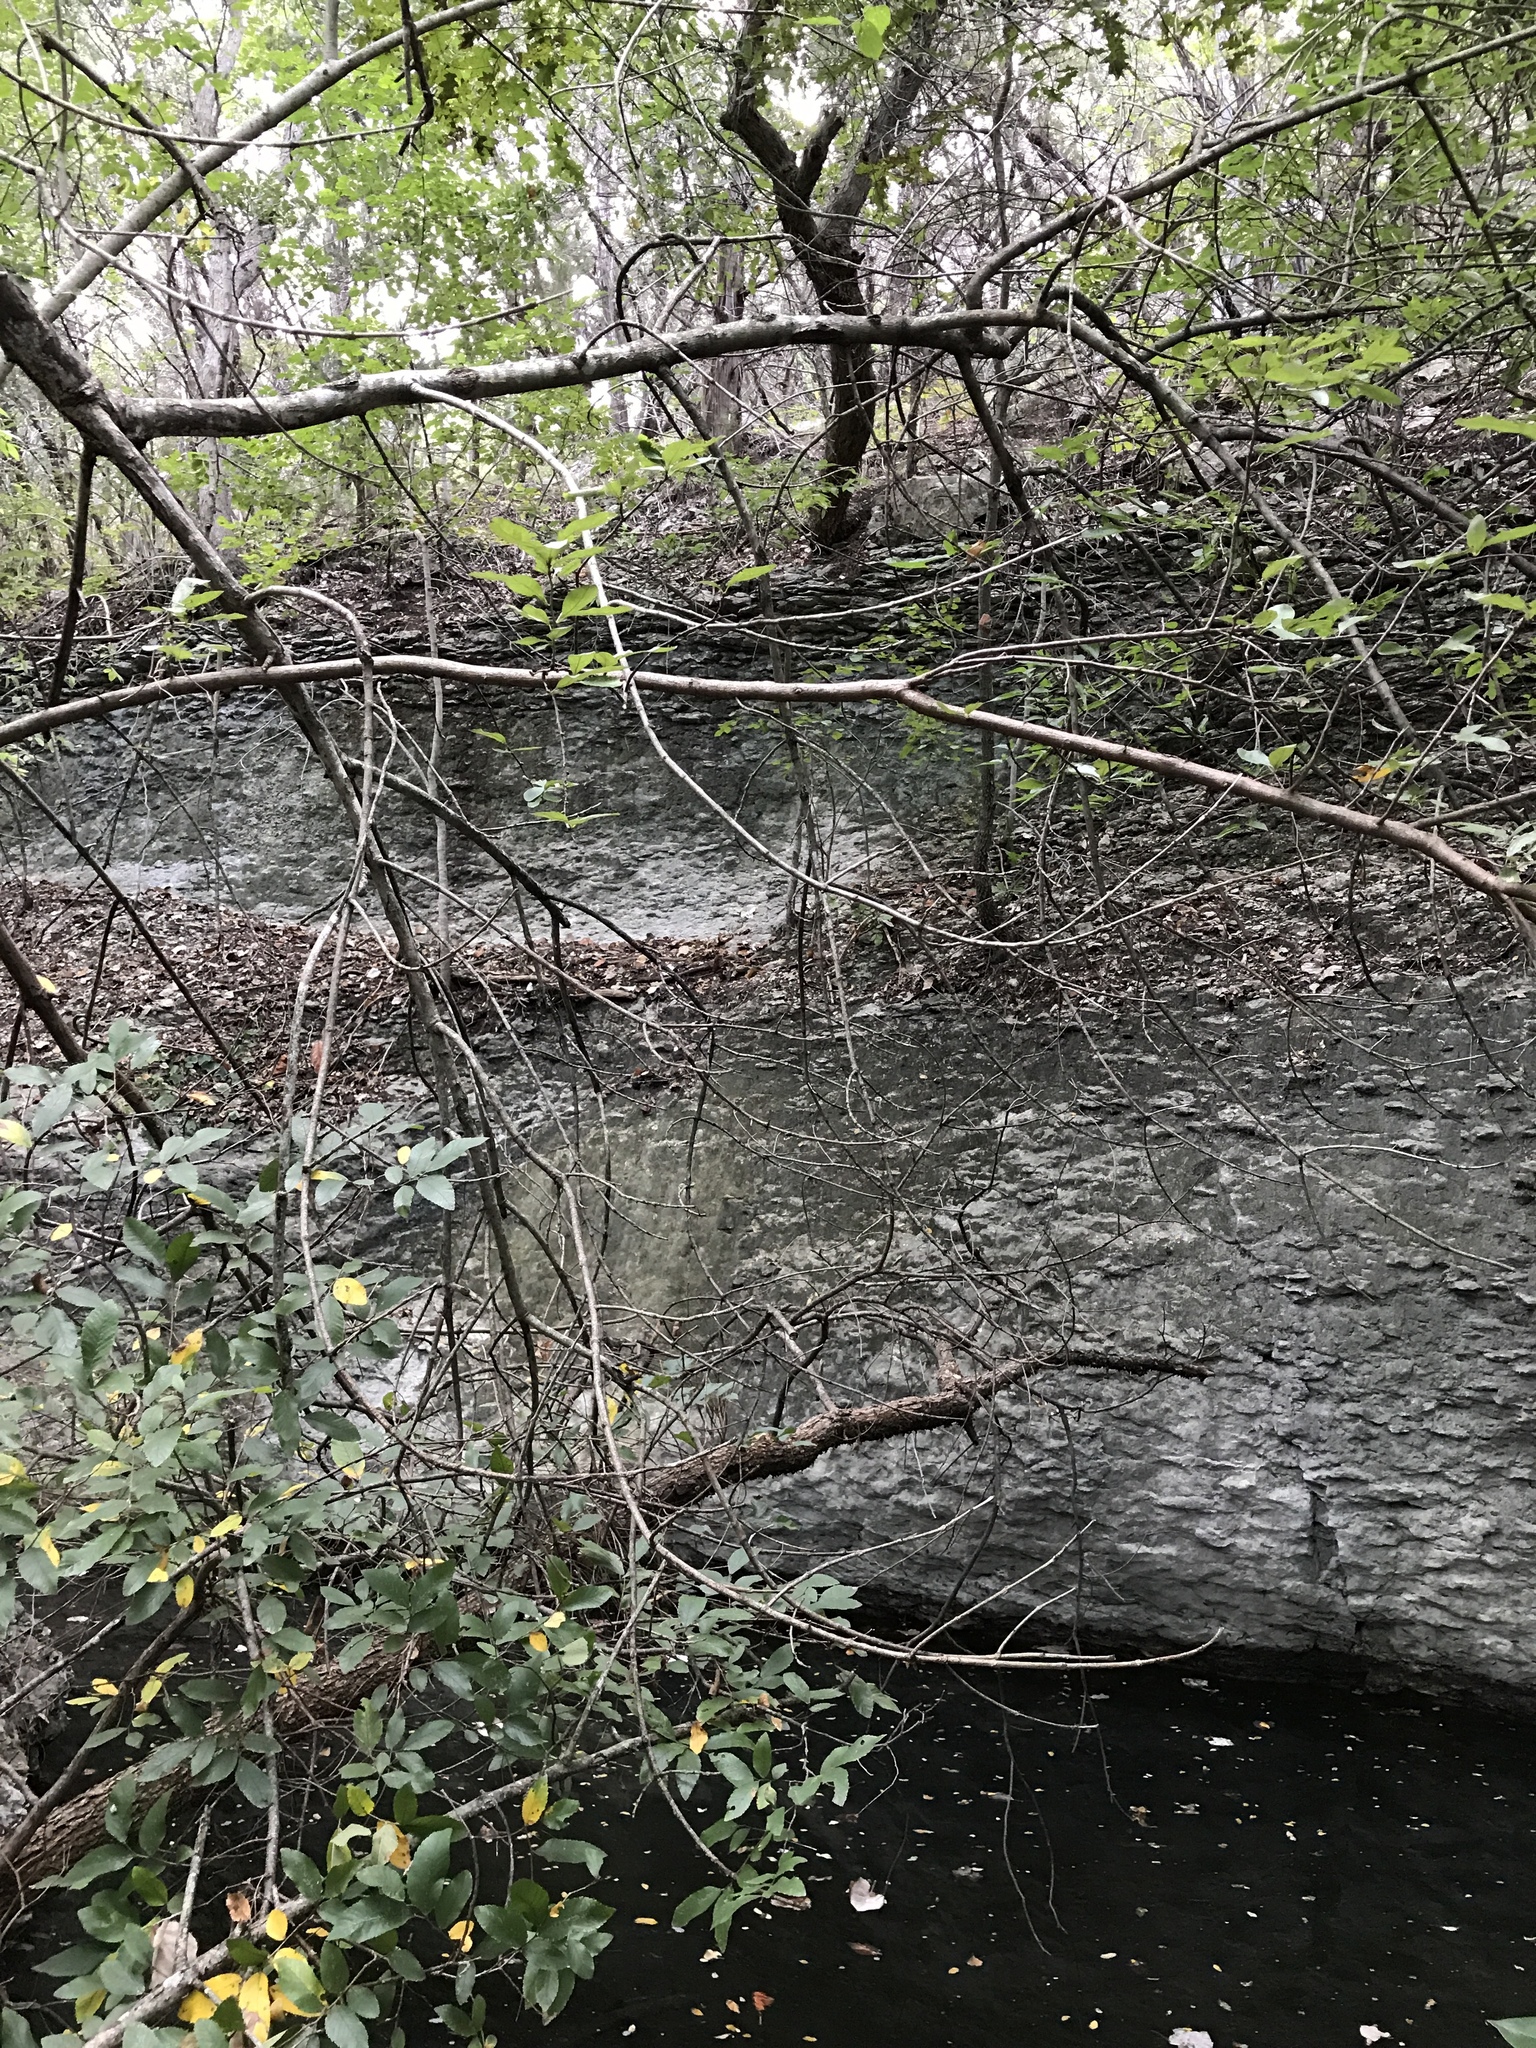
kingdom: Plantae
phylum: Tracheophyta
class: Magnoliopsida
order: Caryophyllales
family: Phytolaccaceae
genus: Phytolacca
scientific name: Phytolacca americana
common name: American pokeweed
